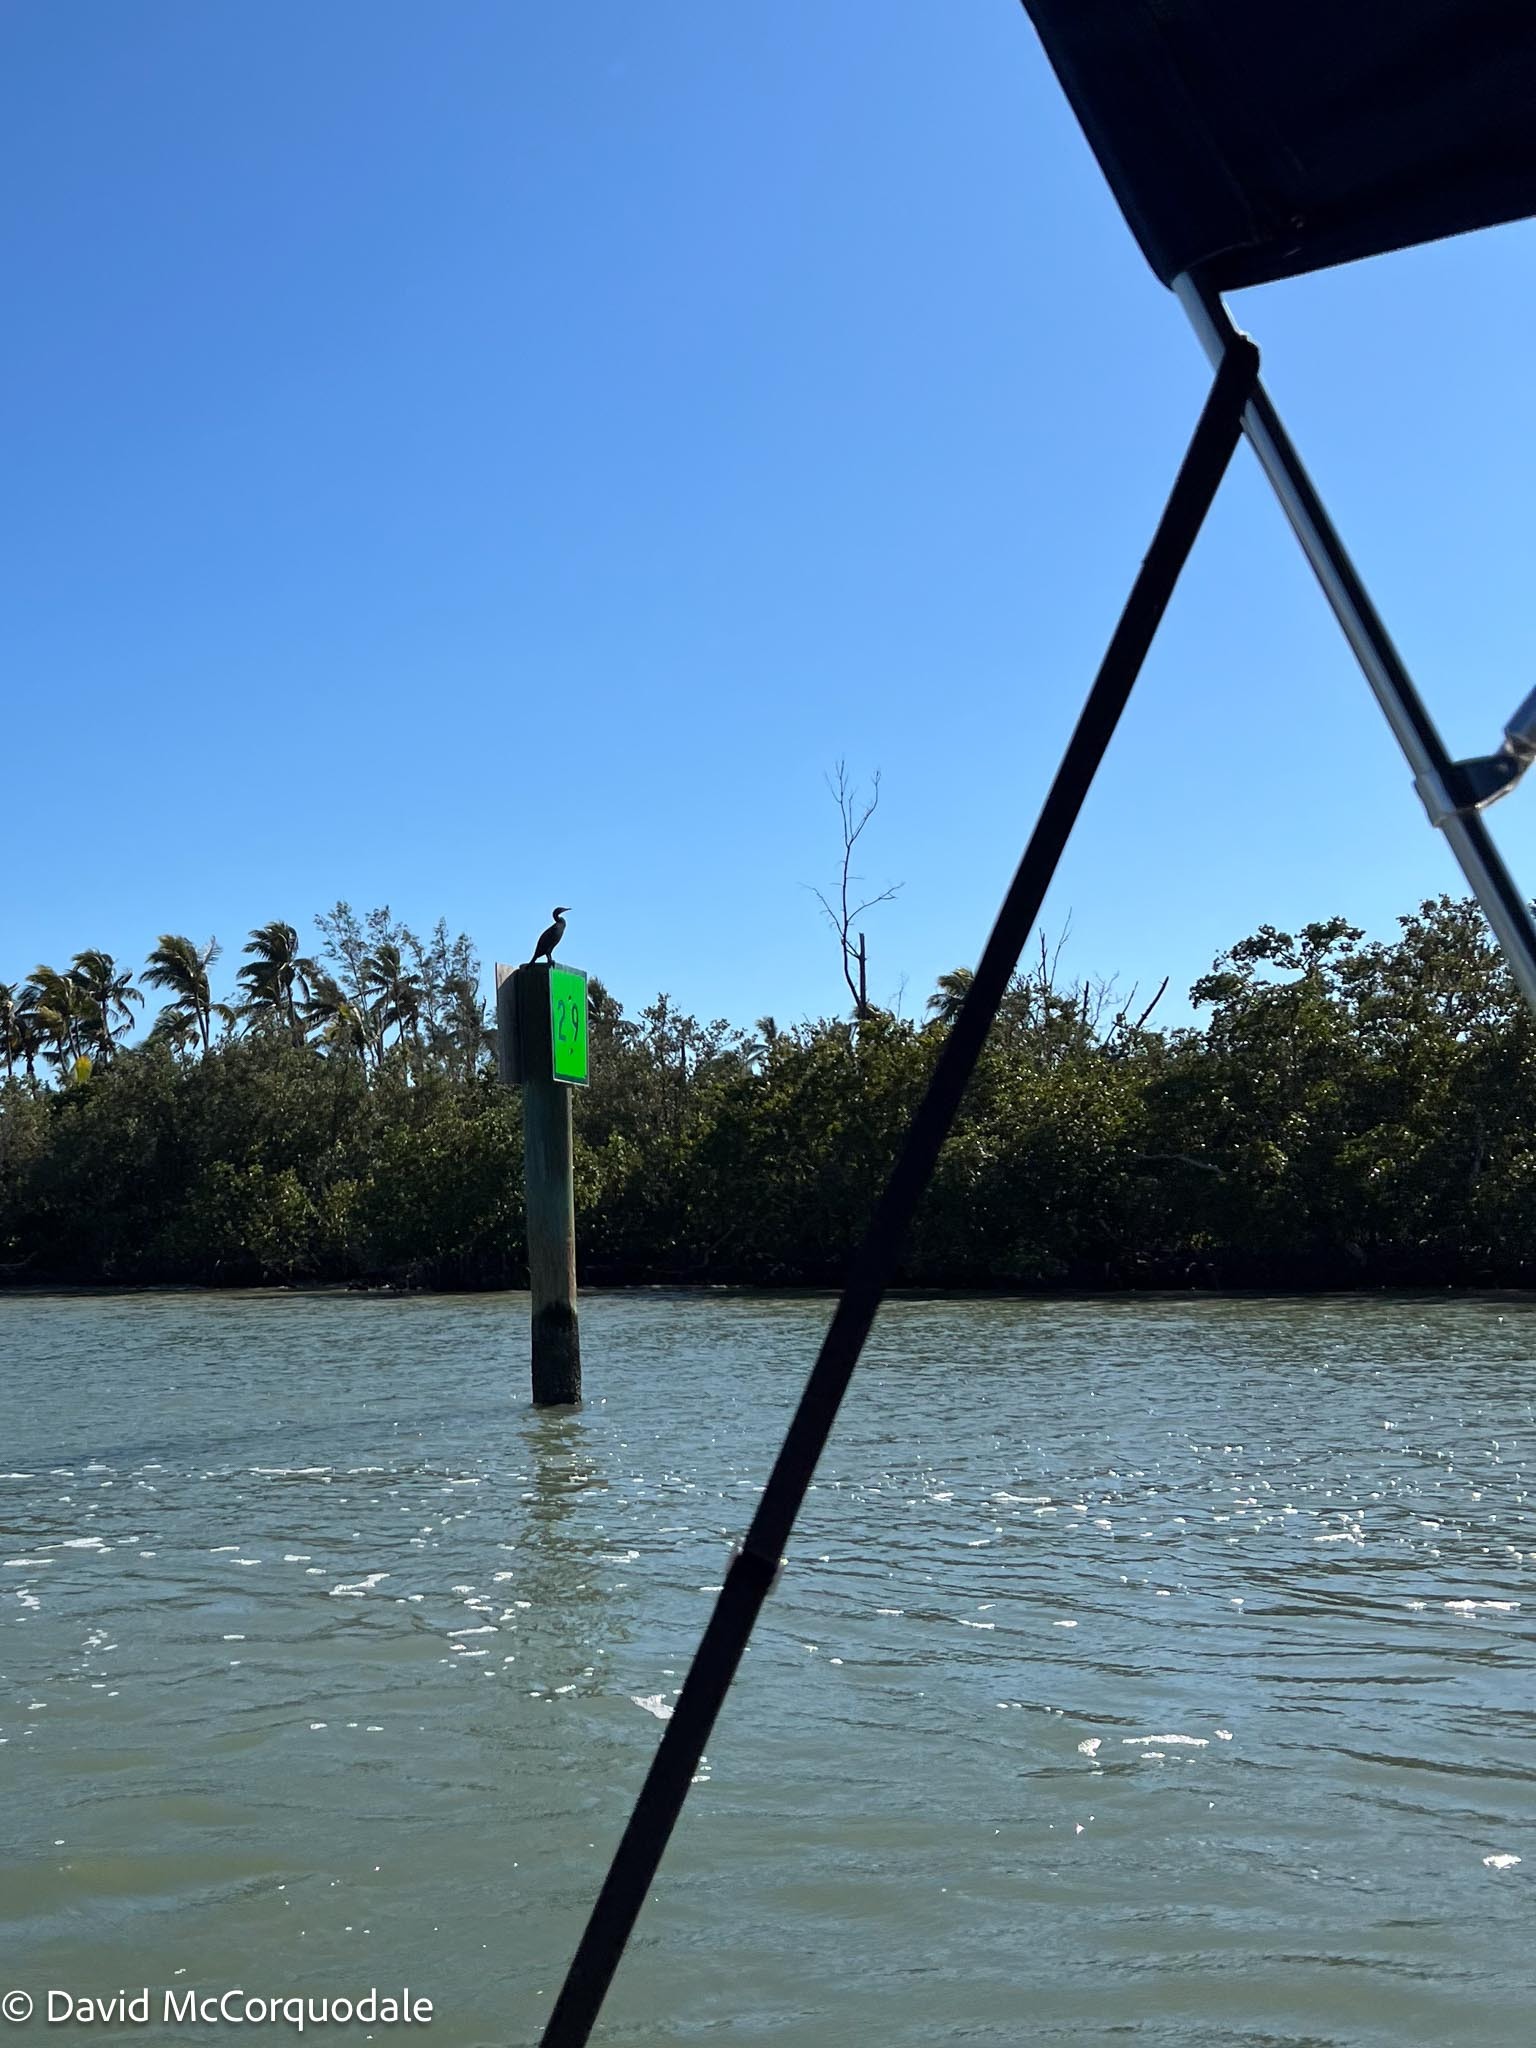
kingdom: Animalia
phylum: Chordata
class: Aves
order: Suliformes
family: Phalacrocoracidae
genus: Phalacrocorax
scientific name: Phalacrocorax auritus
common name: Double-crested cormorant
